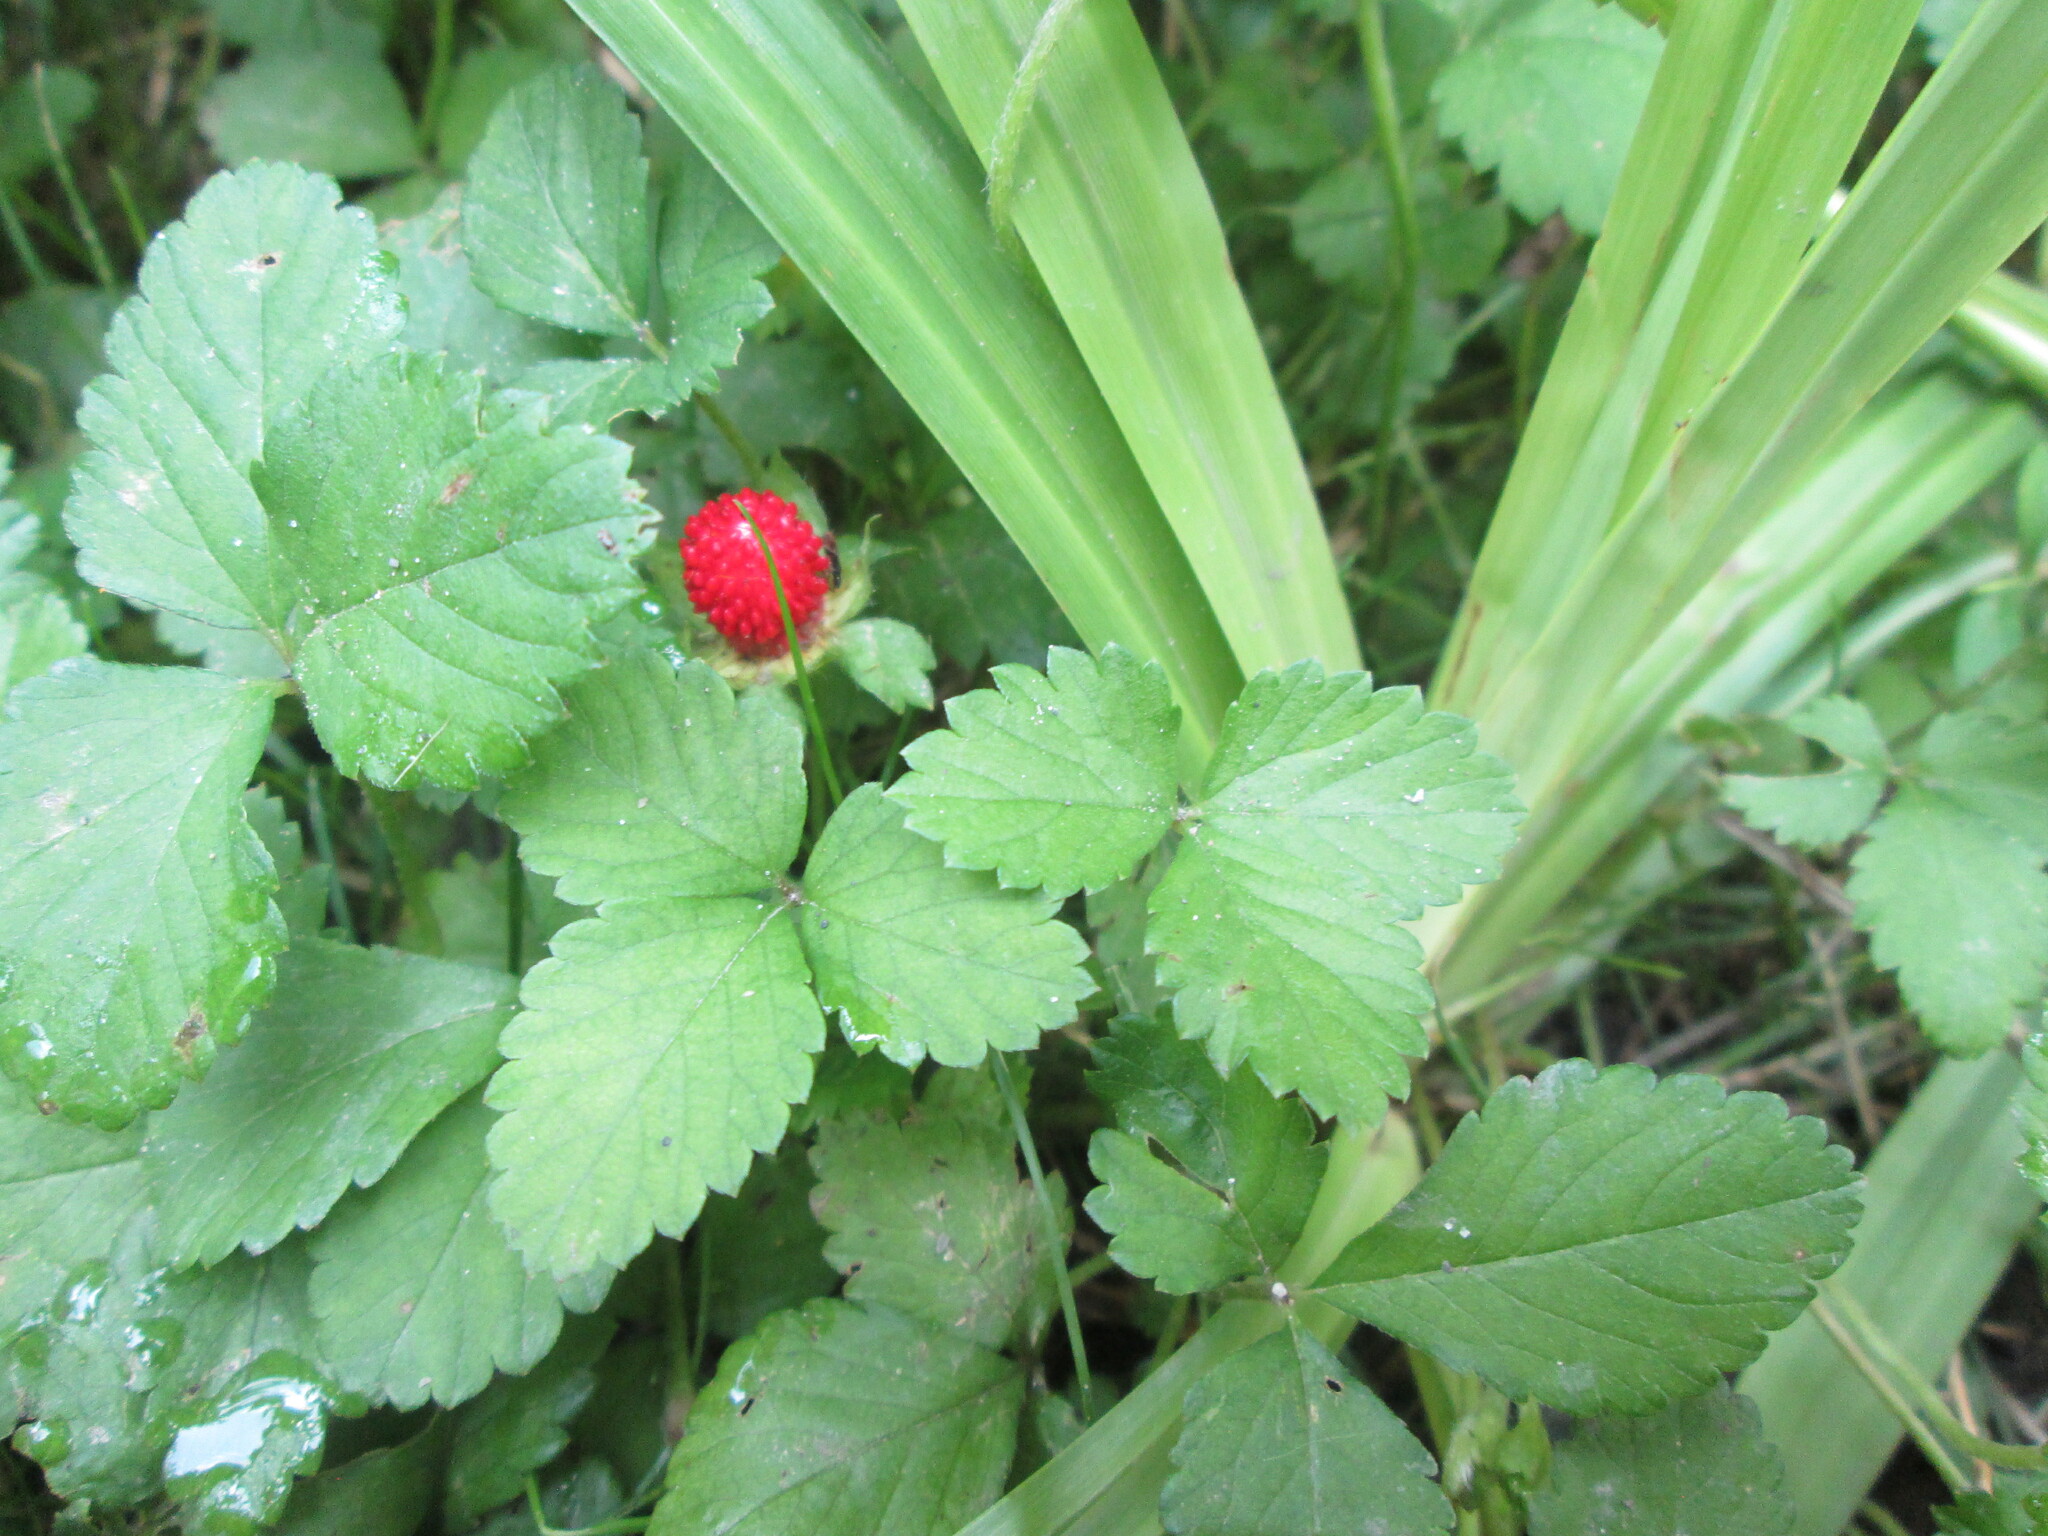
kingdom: Plantae
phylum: Tracheophyta
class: Magnoliopsida
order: Rosales
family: Rosaceae
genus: Potentilla
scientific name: Potentilla indica
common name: Yellow-flowered strawberry
